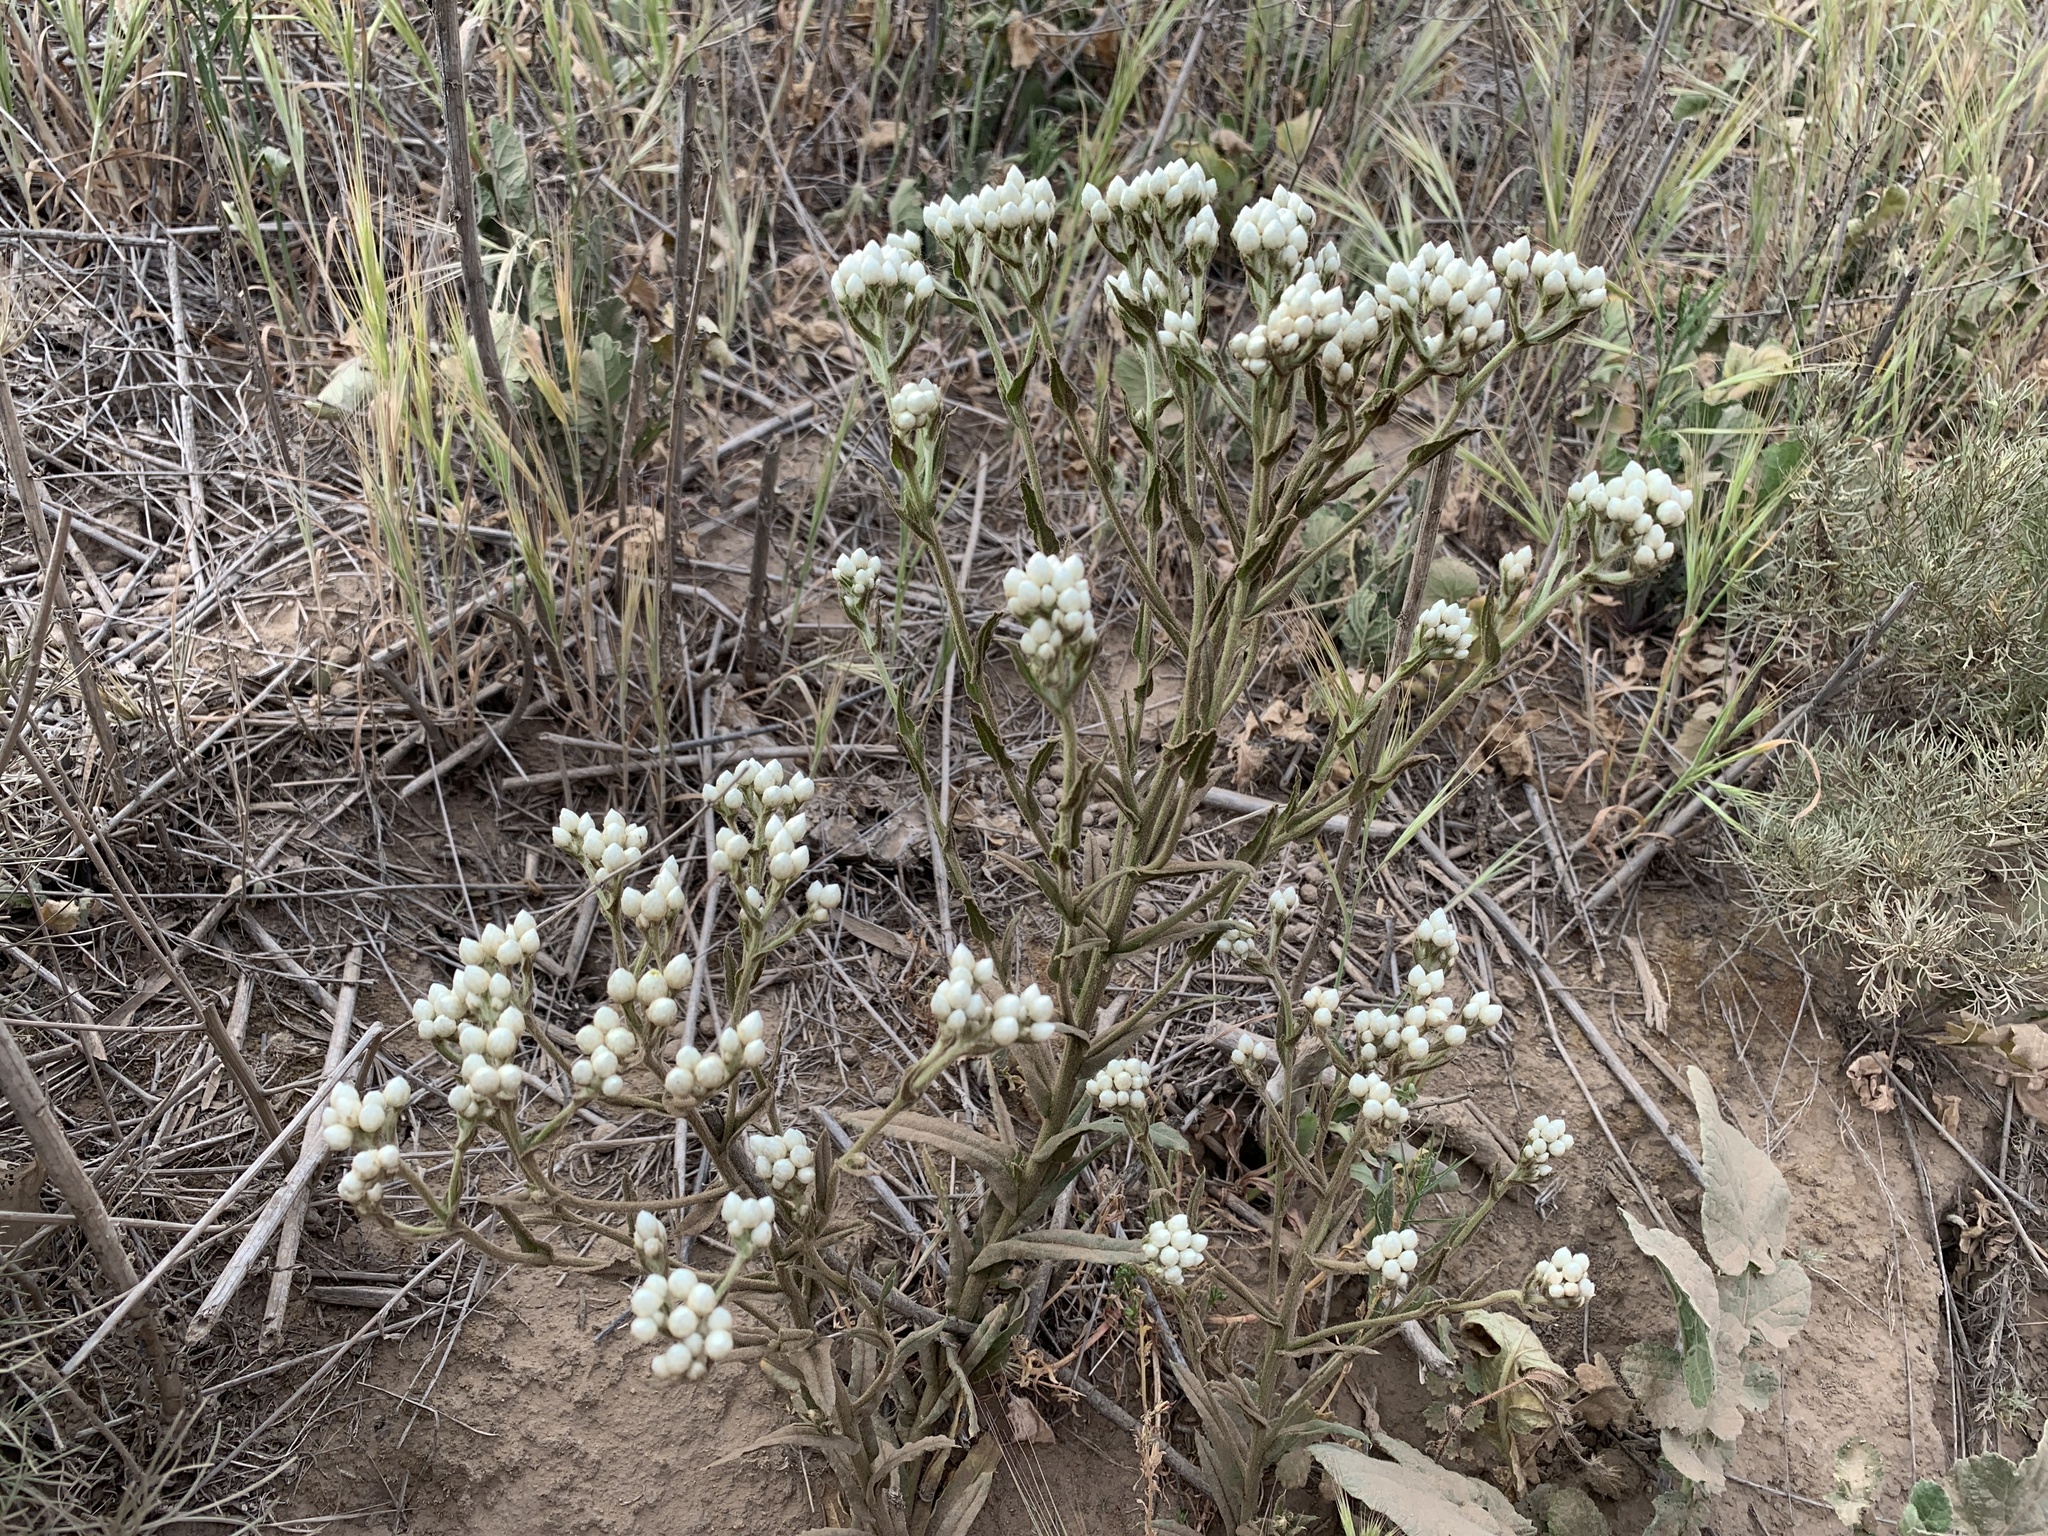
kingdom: Plantae
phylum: Tracheophyta
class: Magnoliopsida
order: Asterales
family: Asteraceae
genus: Pseudognaphalium
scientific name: Pseudognaphalium californicum
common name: California rabbit-tobacco
